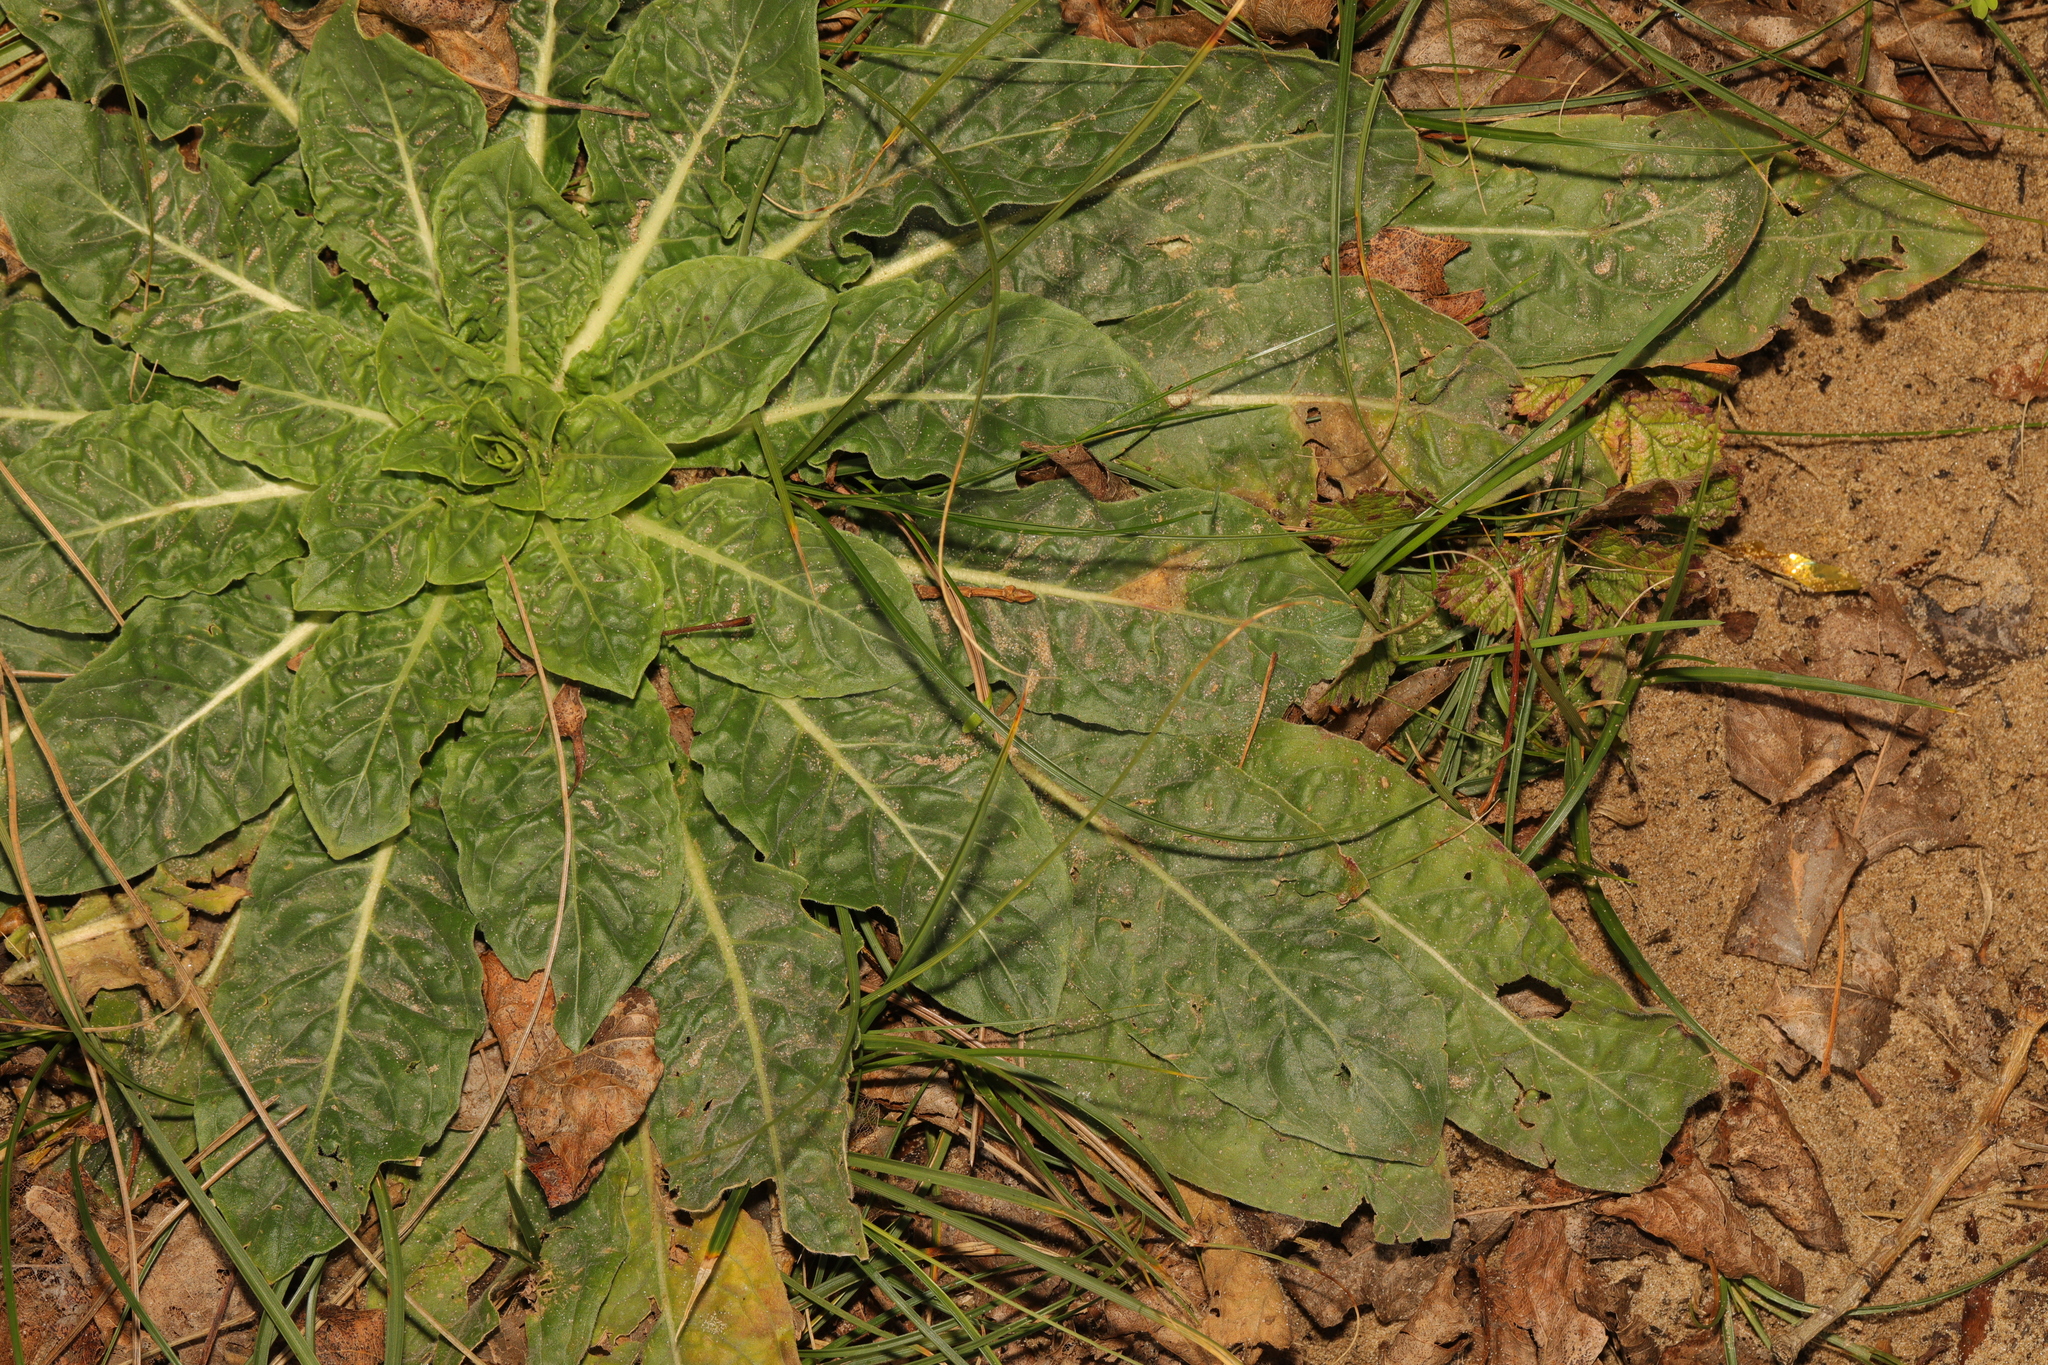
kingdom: Plantae
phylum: Tracheophyta
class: Magnoliopsida
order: Asterales
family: Asteraceae
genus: Helminthotheca
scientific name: Helminthotheca echioides
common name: Ox-tongue
